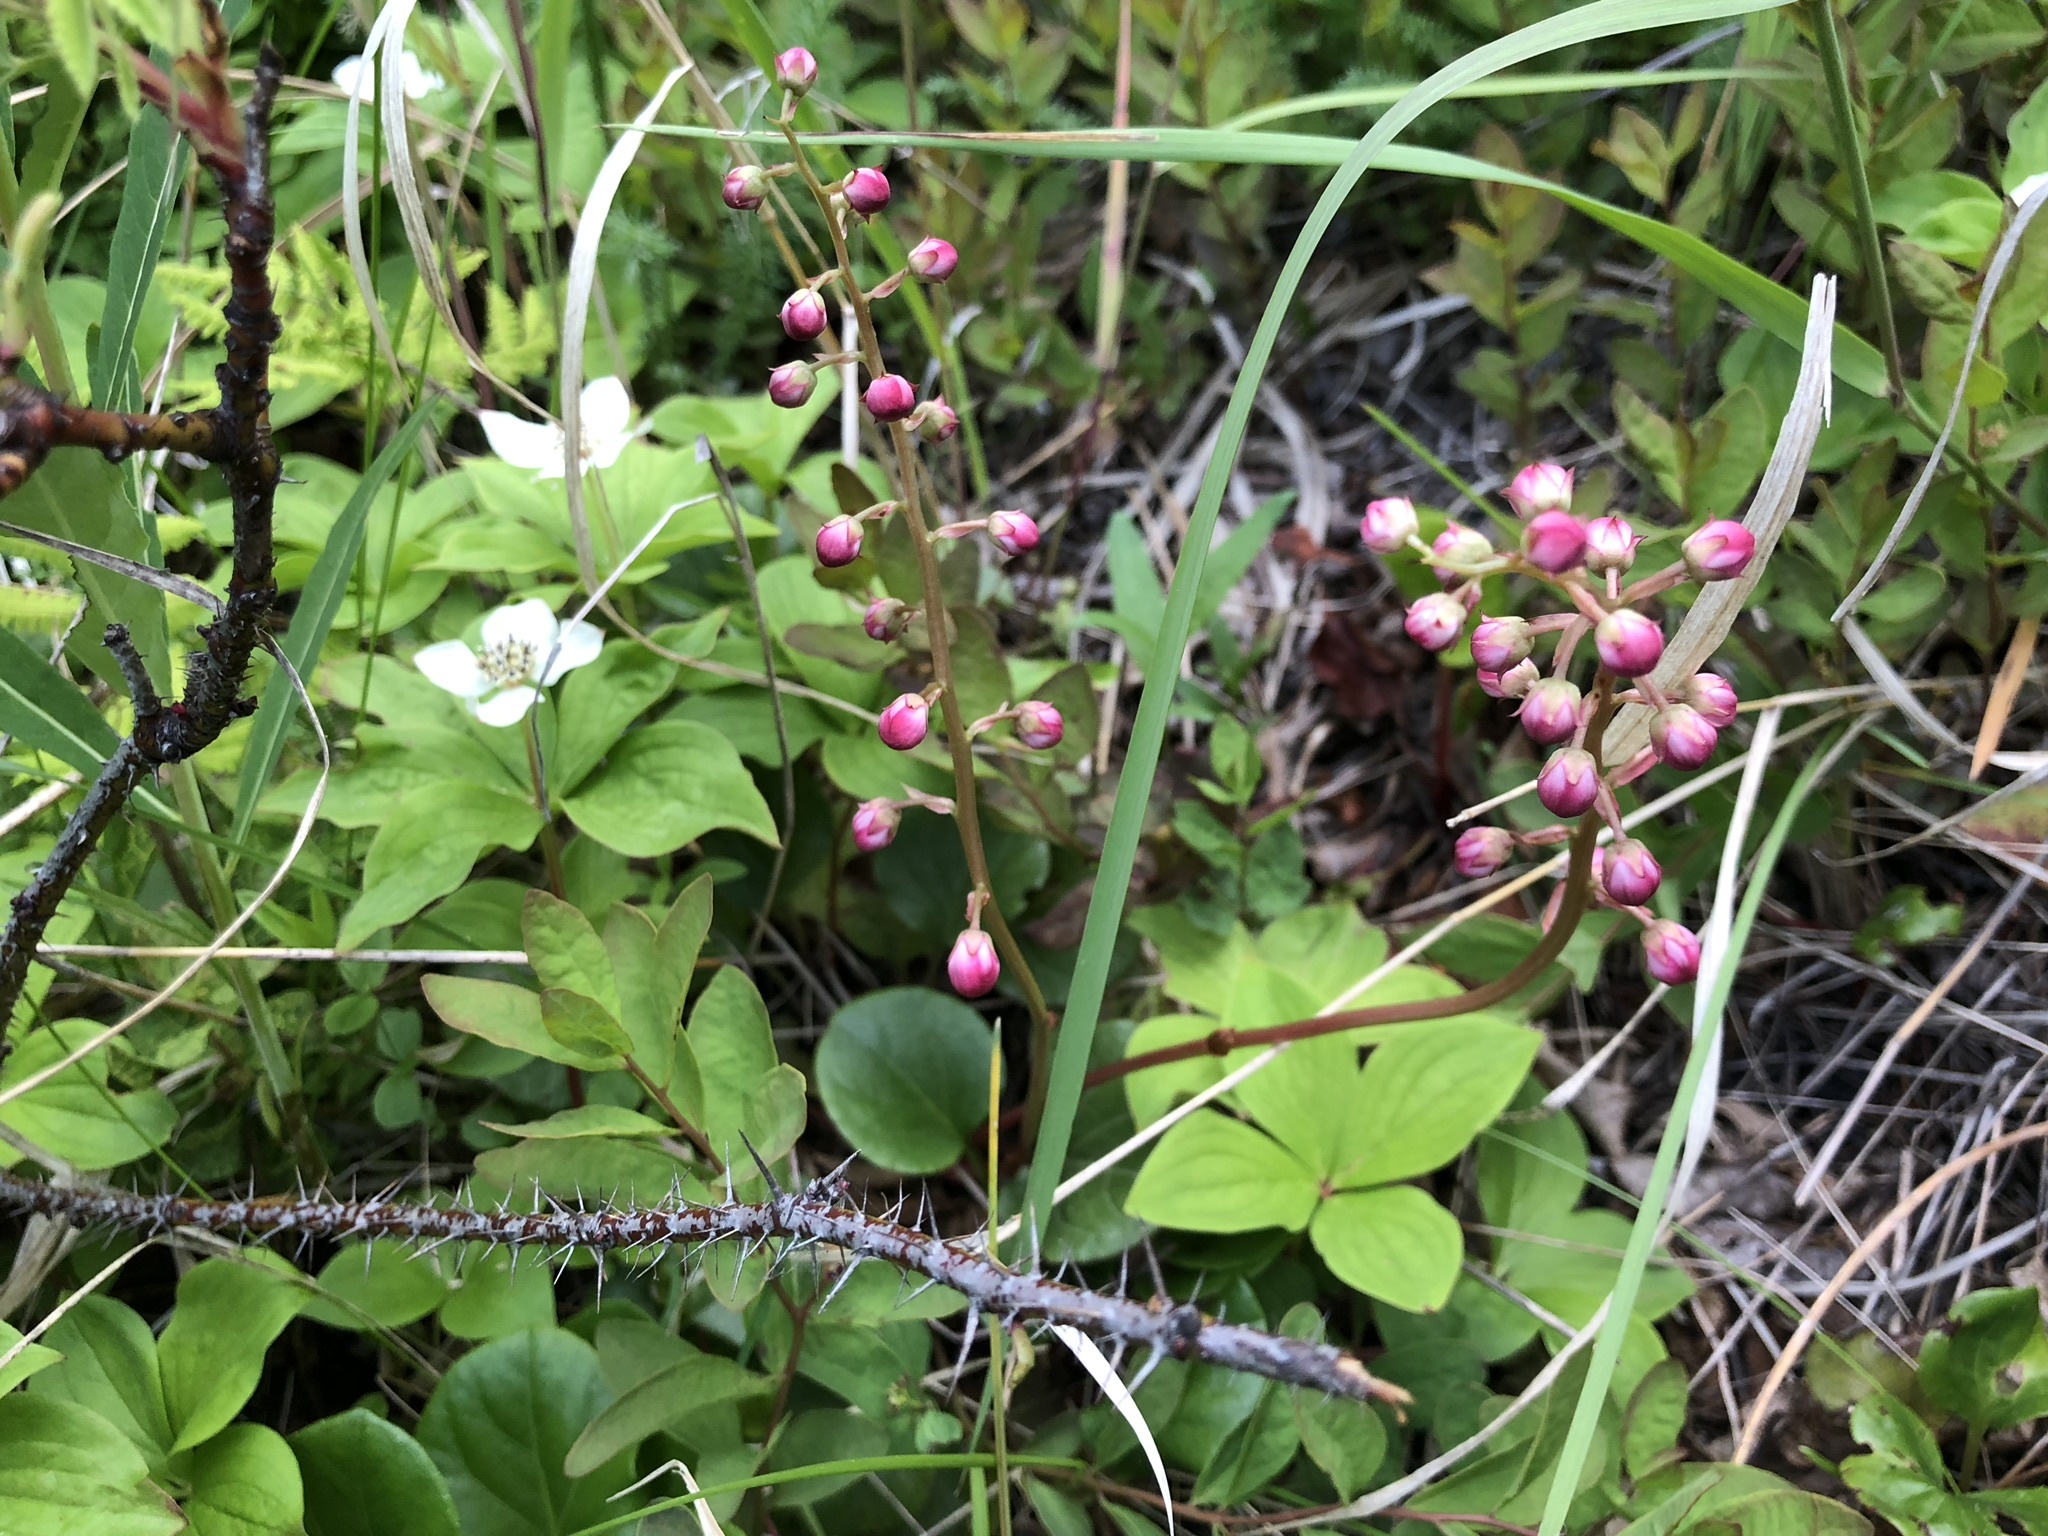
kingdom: Plantae
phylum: Tracheophyta
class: Magnoliopsida
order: Ericales
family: Ericaceae
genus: Pyrola
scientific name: Pyrola asarifolia
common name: Bog wintergreen
